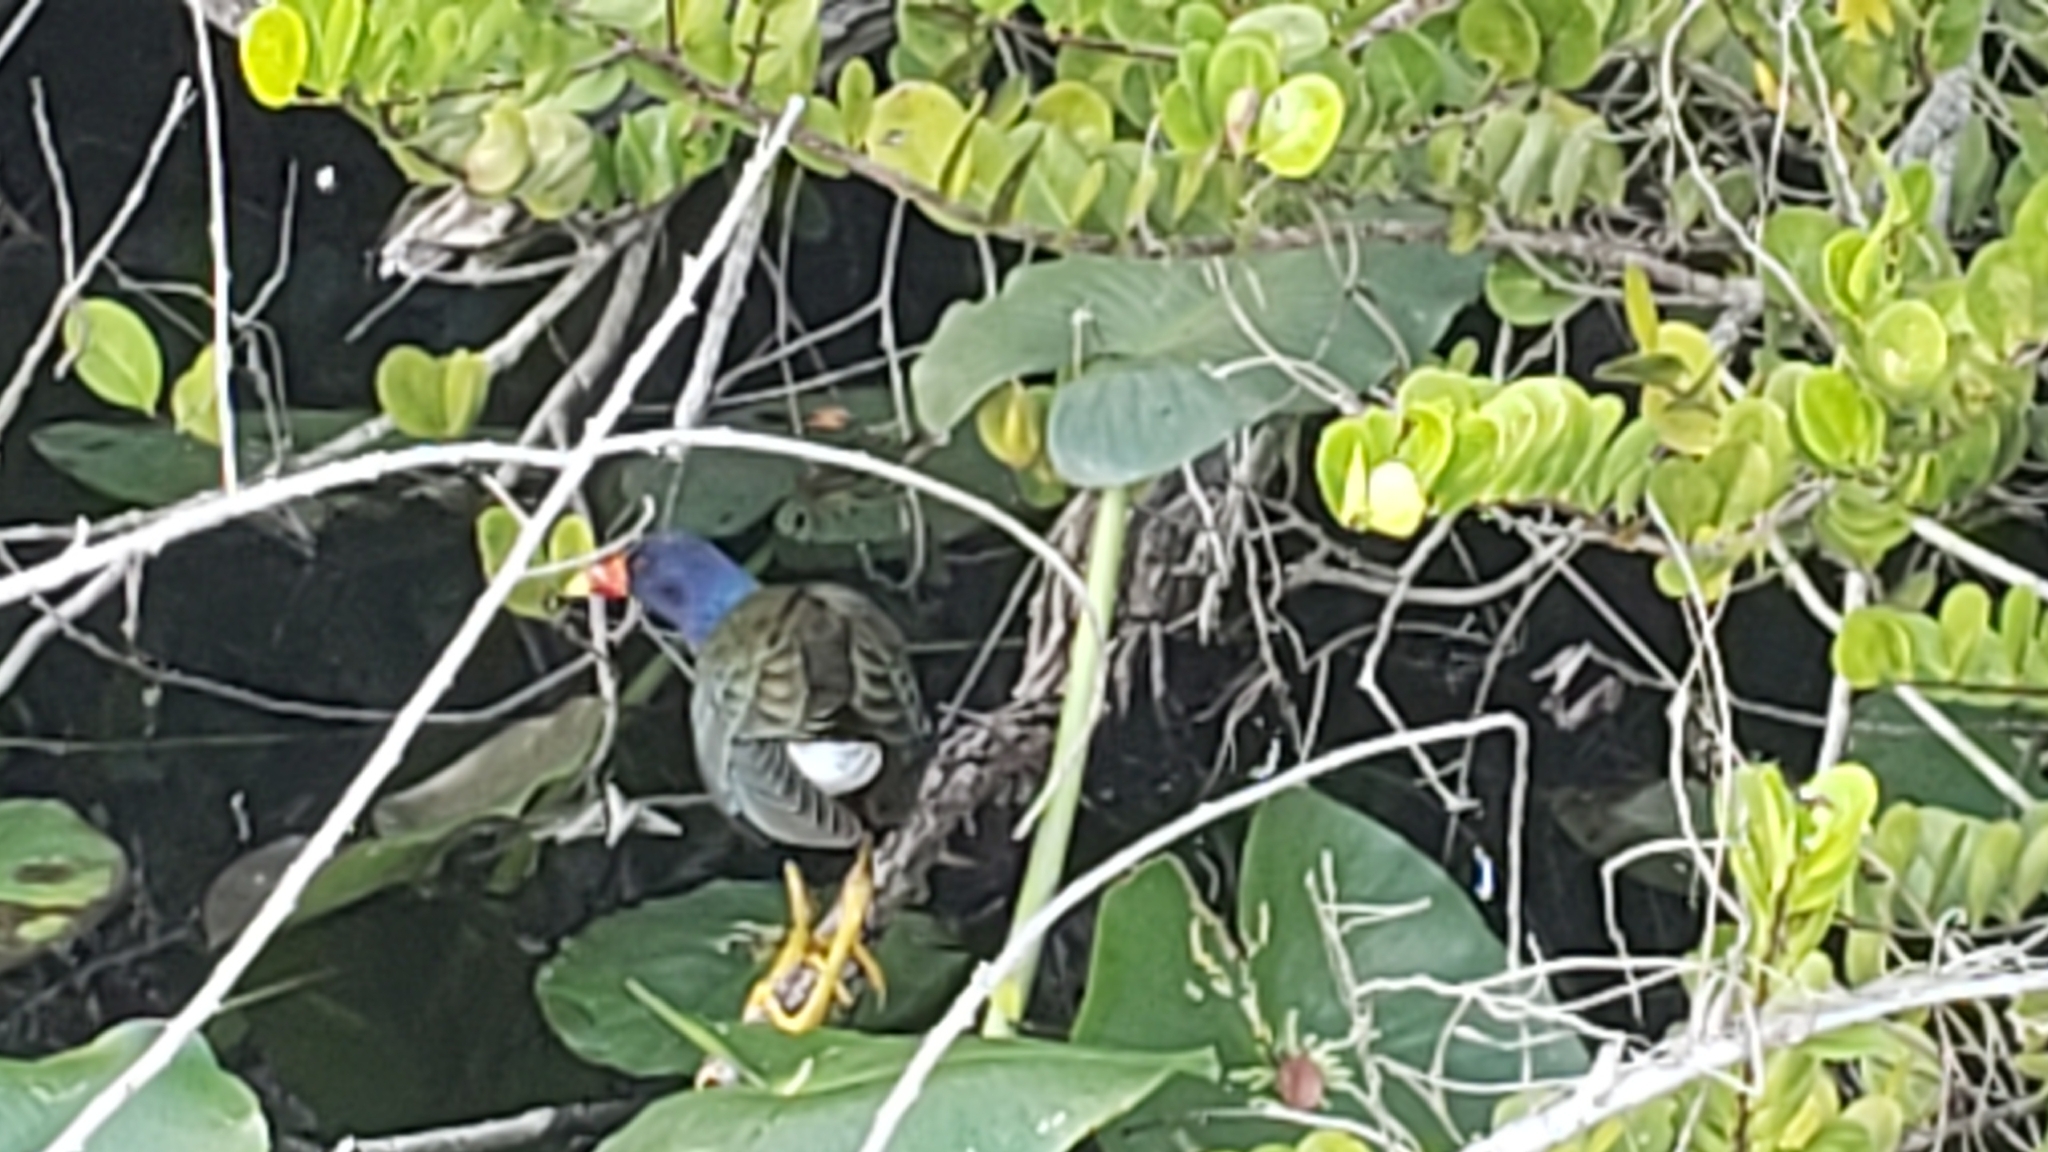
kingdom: Animalia
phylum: Chordata
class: Aves
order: Gruiformes
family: Rallidae
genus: Porphyrio
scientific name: Porphyrio martinica
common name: Purple gallinule
